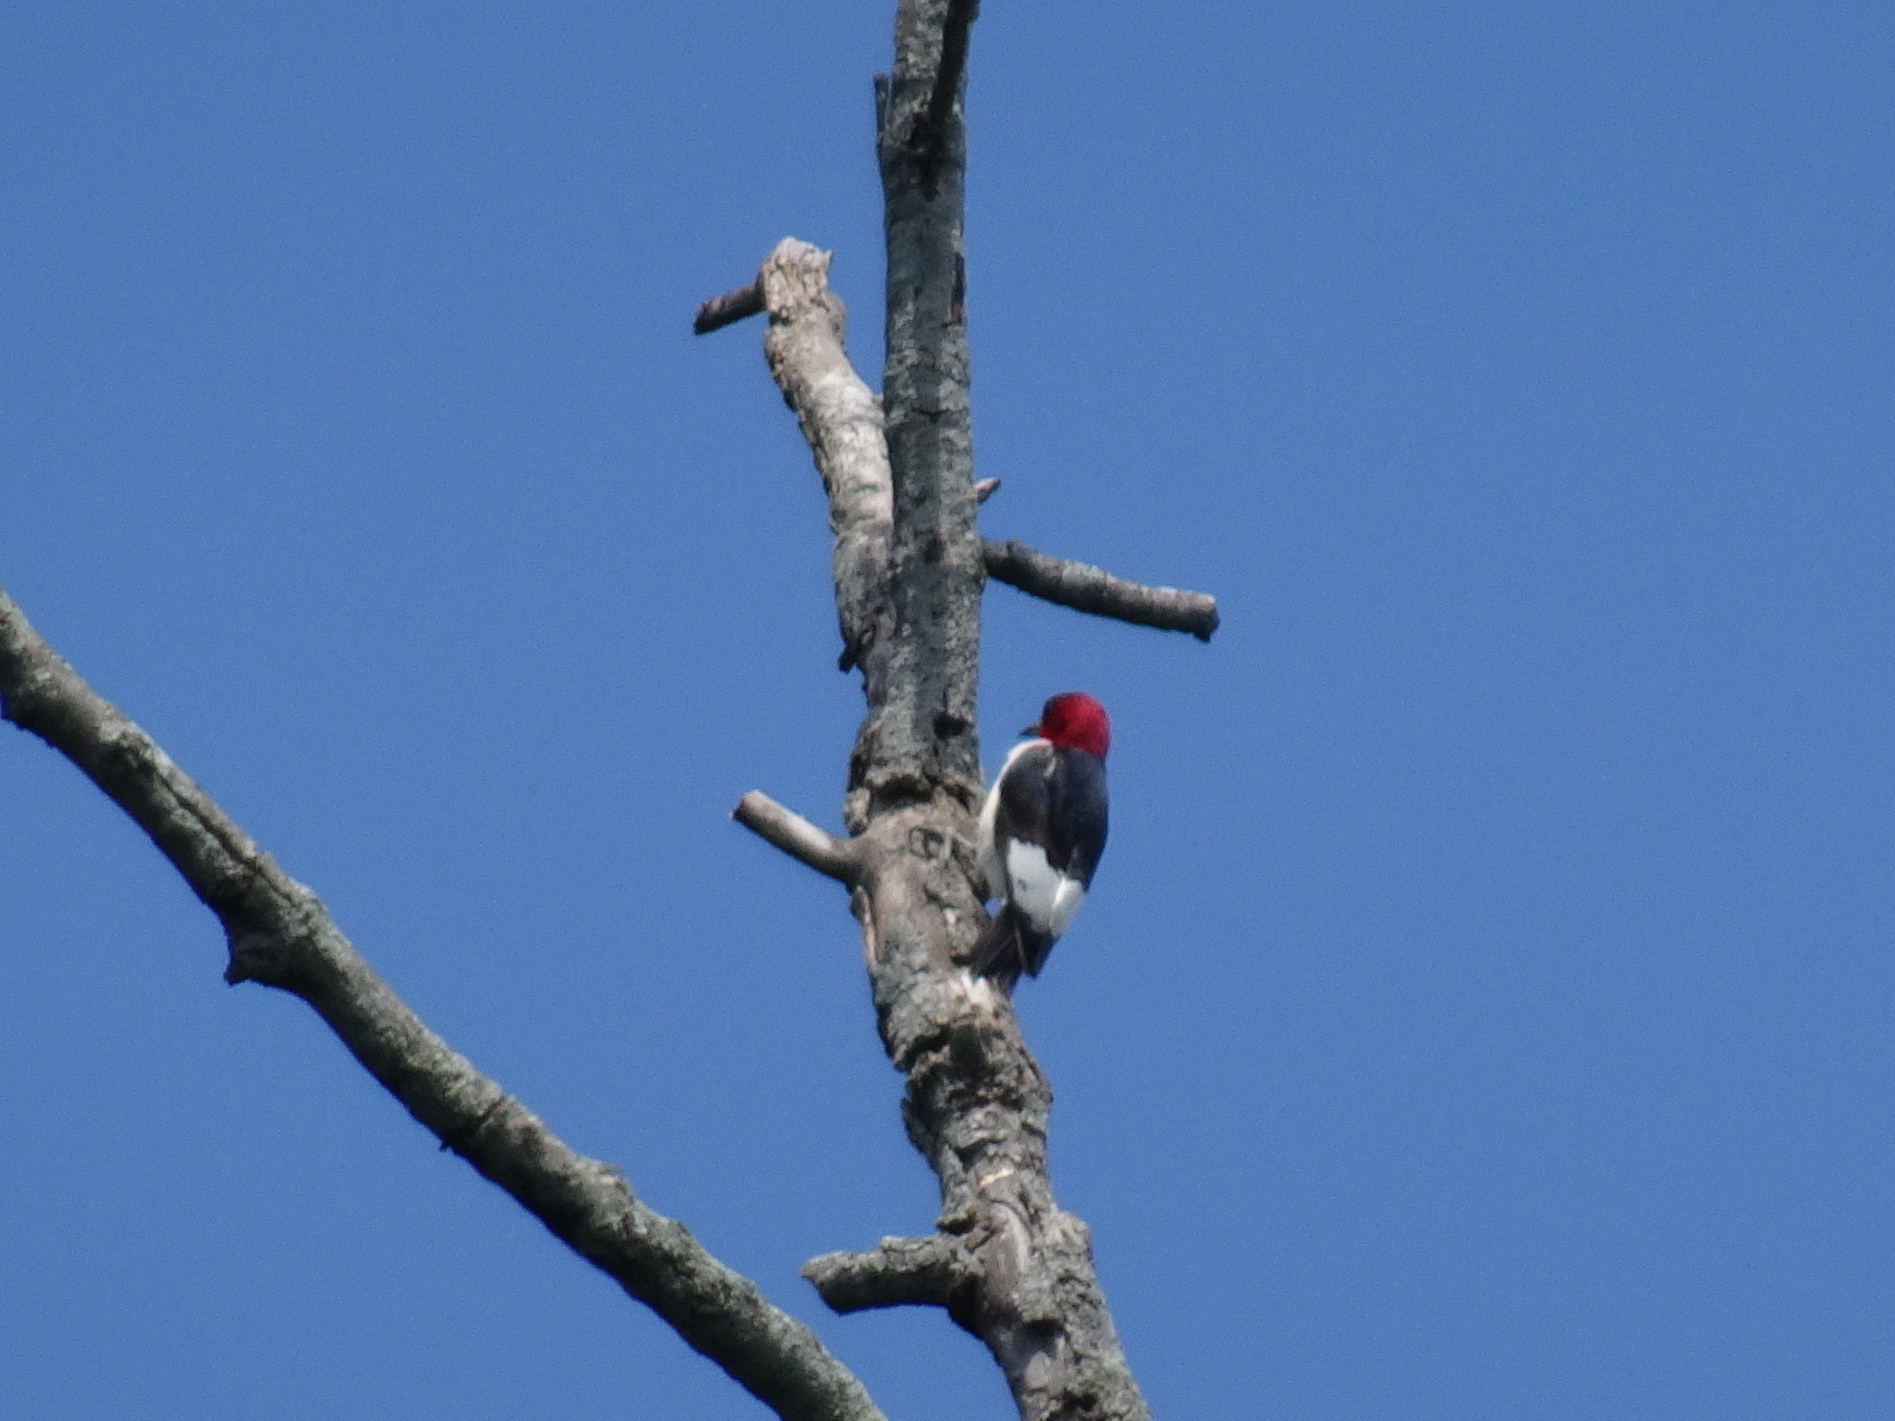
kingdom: Animalia
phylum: Chordata
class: Aves
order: Piciformes
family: Picidae
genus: Melanerpes
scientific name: Melanerpes erythrocephalus
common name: Red-headed woodpecker
